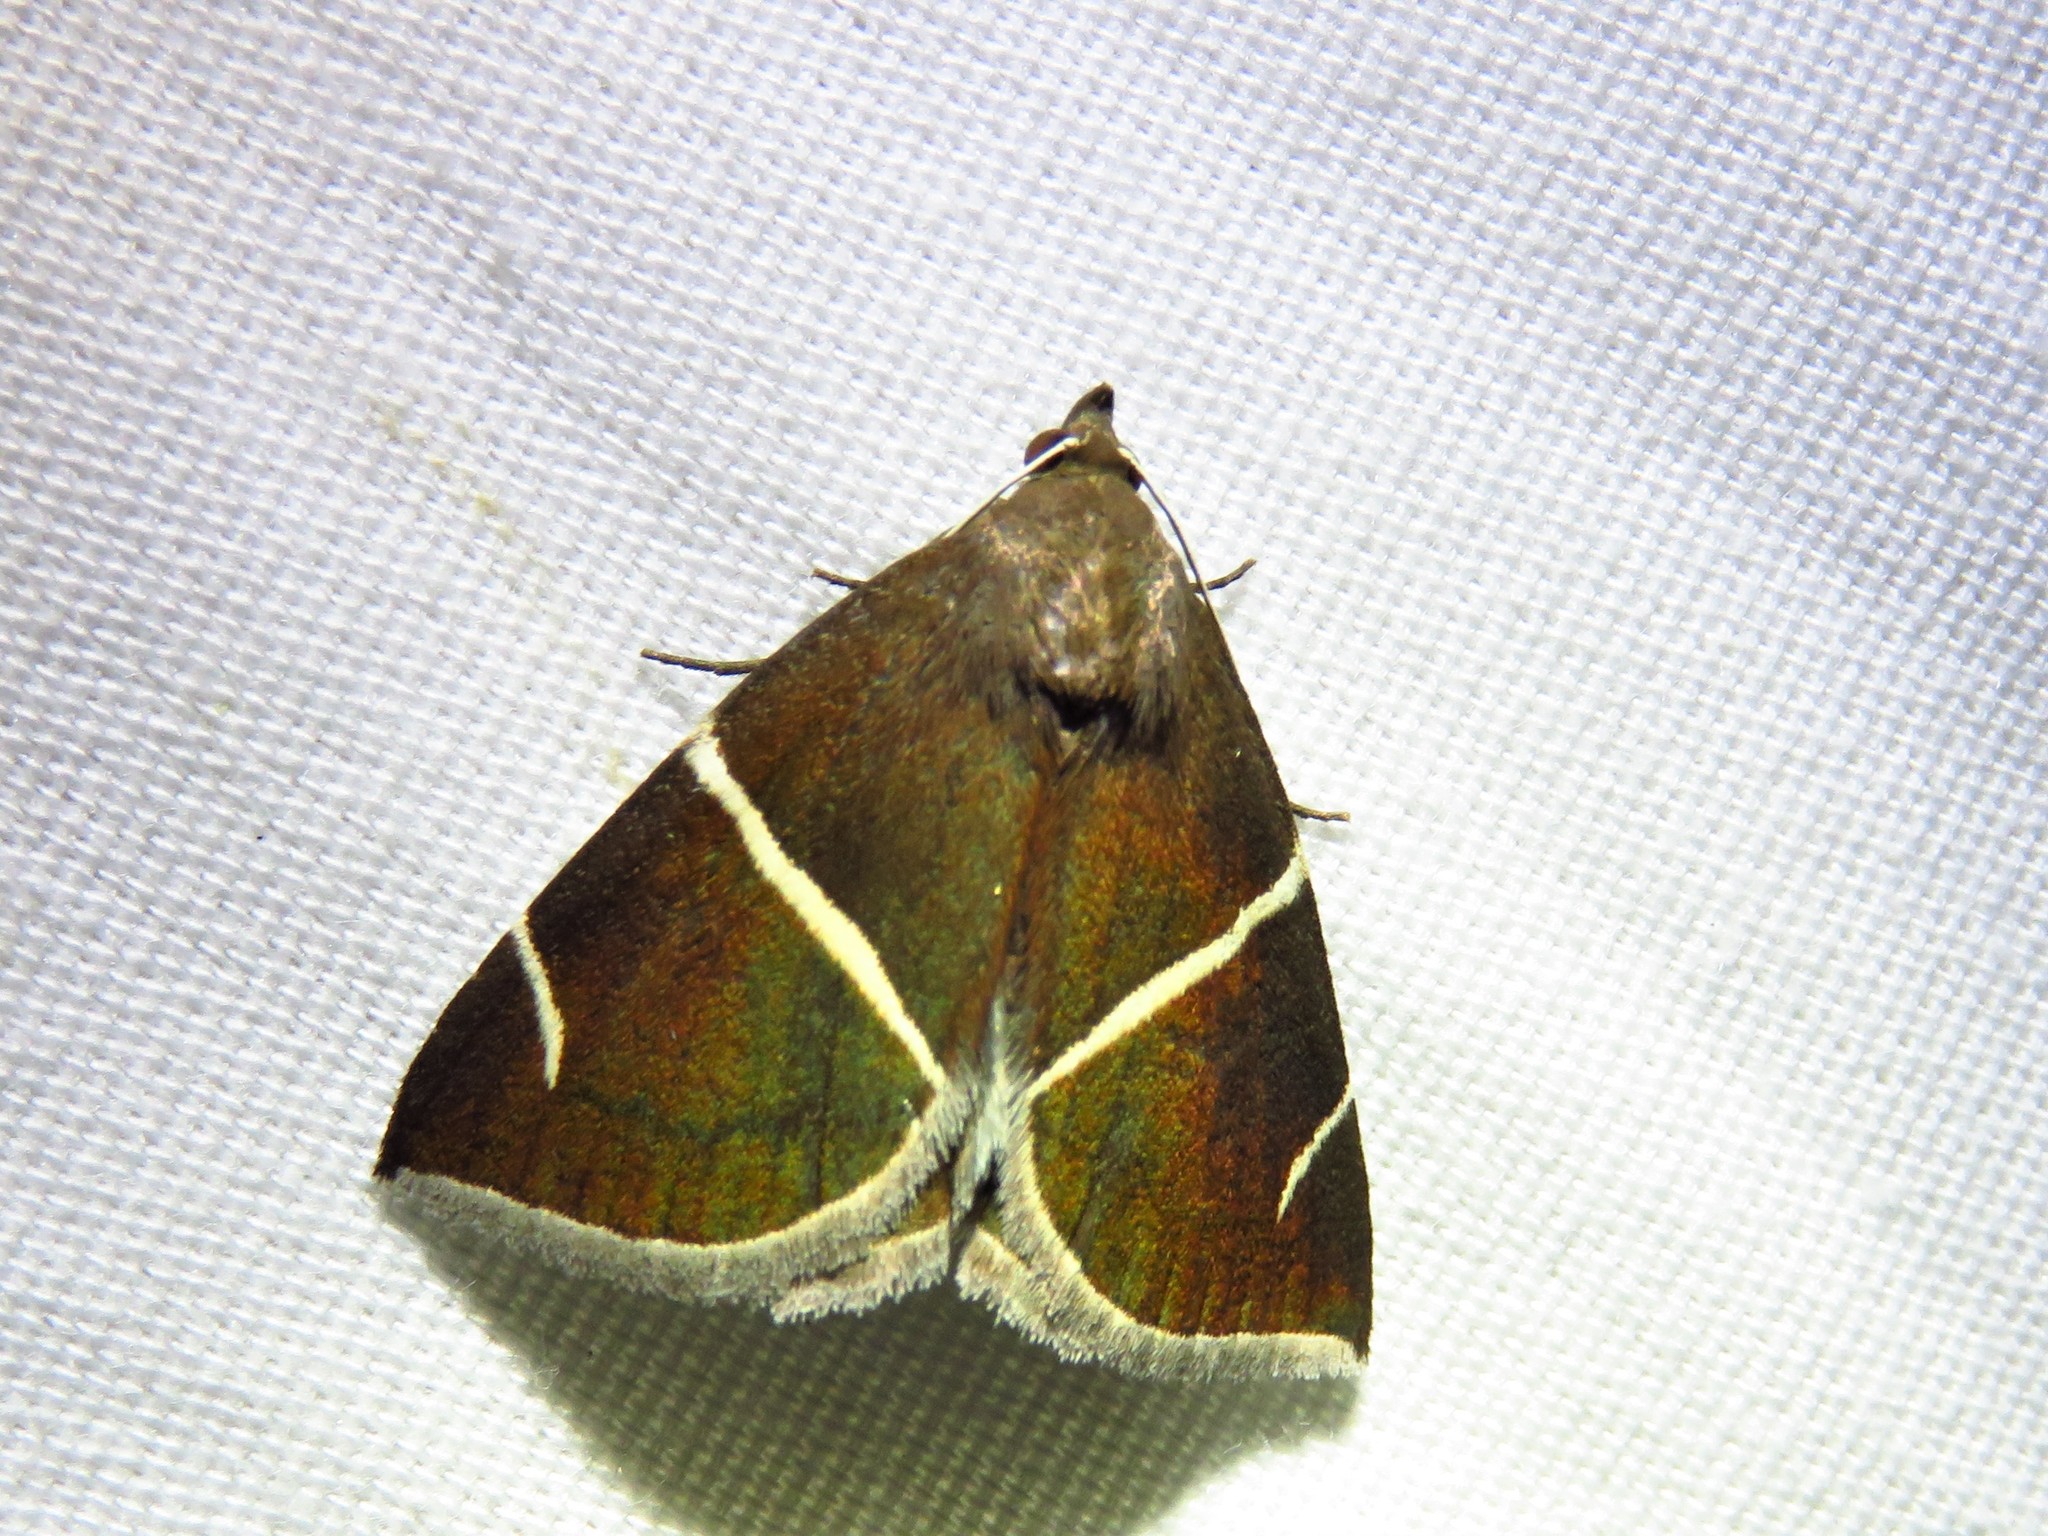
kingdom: Animalia
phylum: Arthropoda
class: Insecta
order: Lepidoptera
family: Erebidae
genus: Argyrostrotis
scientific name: Argyrostrotis anilis
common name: Short-lined chocolate
